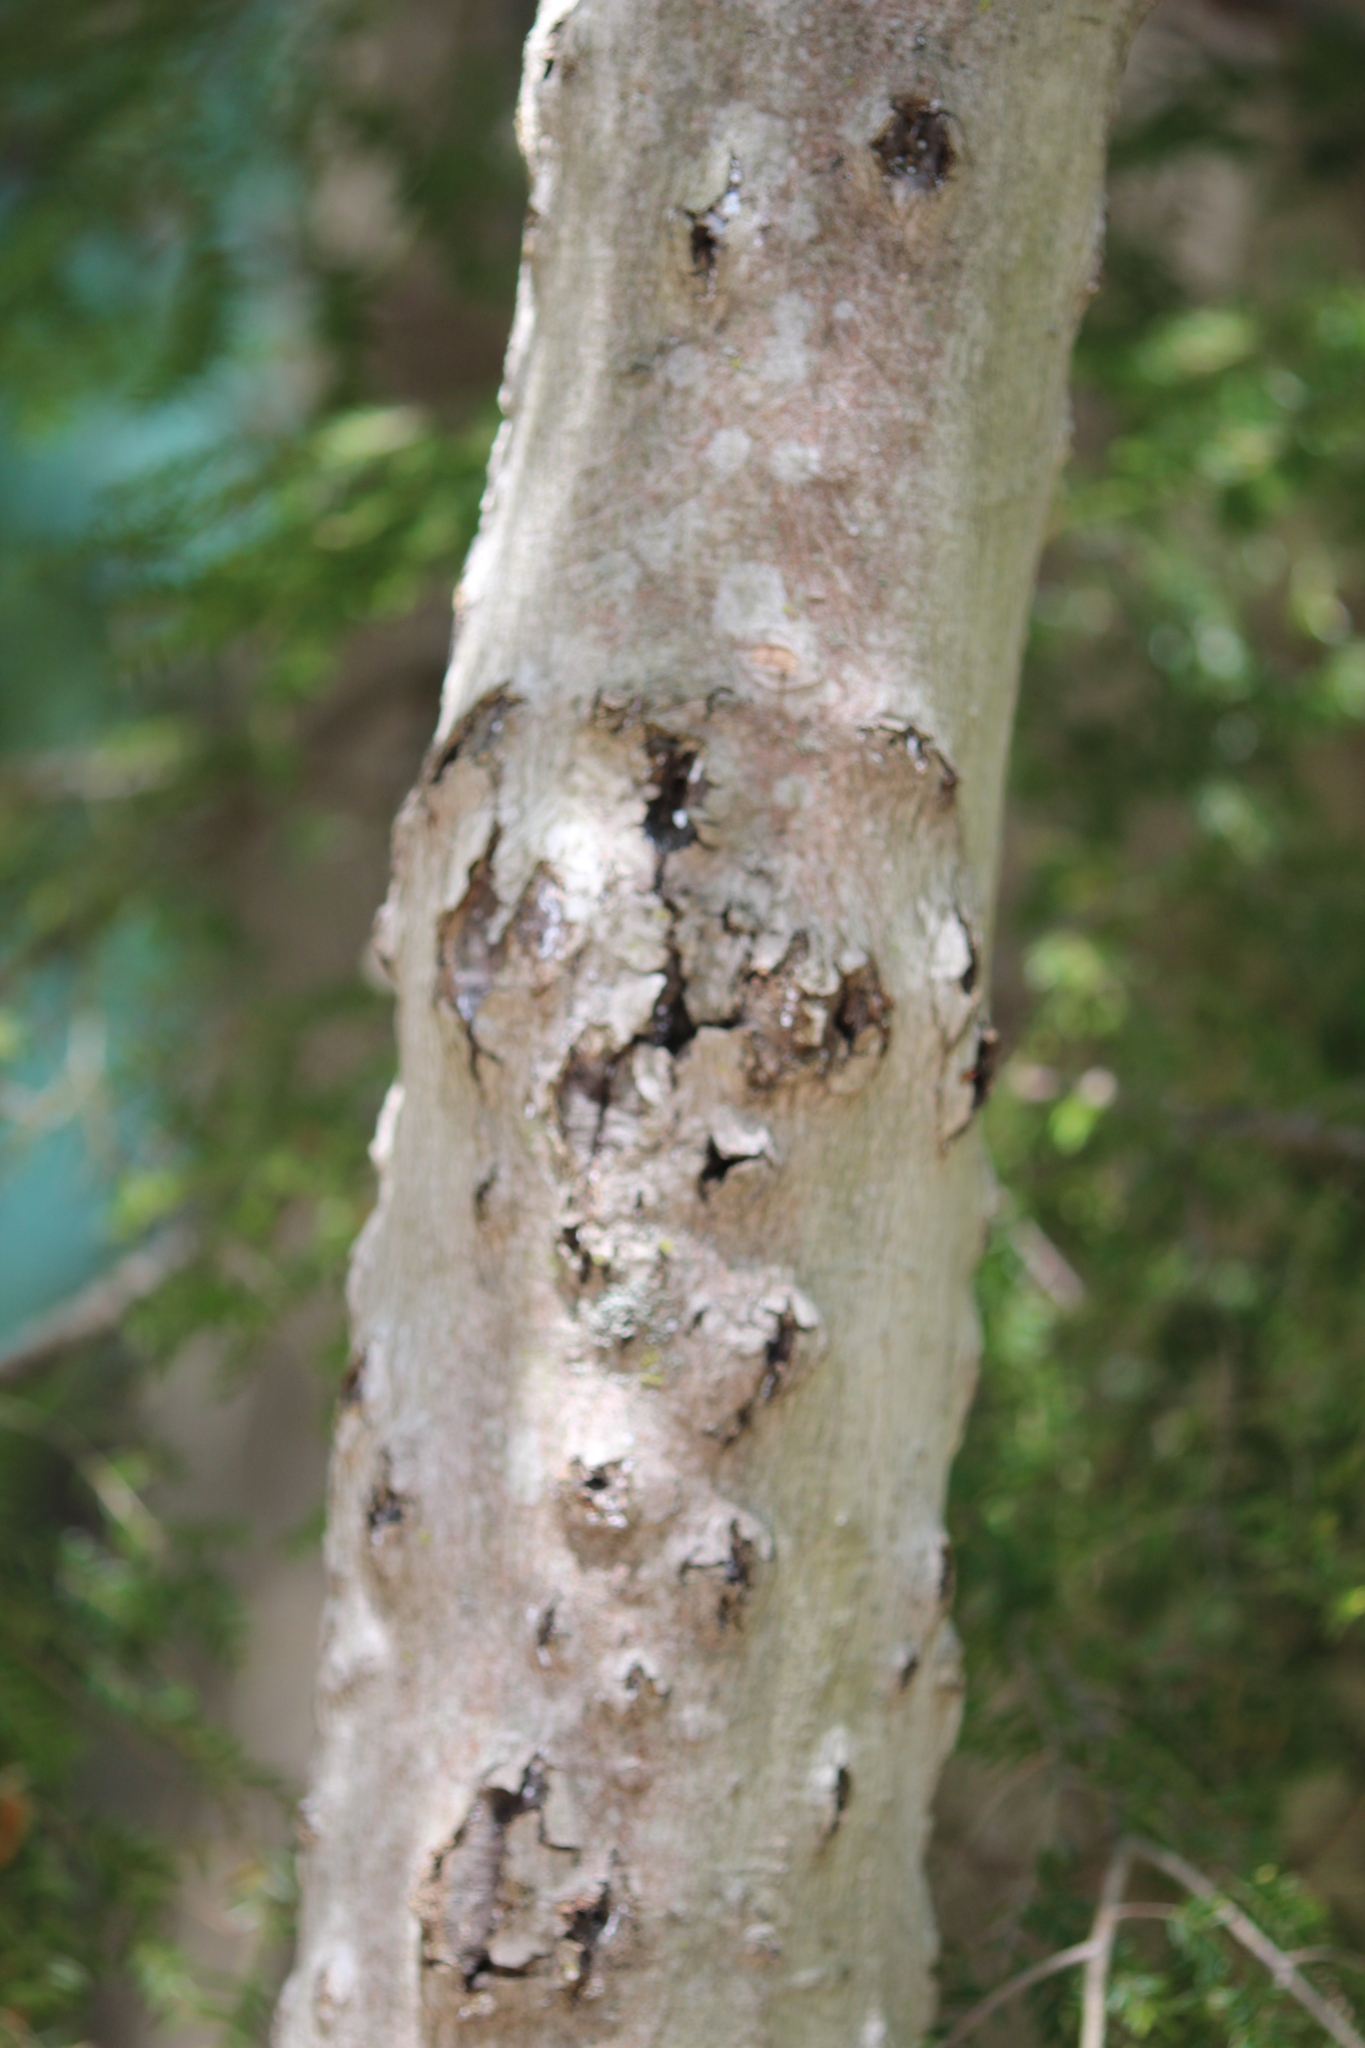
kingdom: Fungi
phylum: Ascomycota
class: Sordariomycetes
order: Hypocreales
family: Nectriaceae
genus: Neonectria
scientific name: Neonectria faginata
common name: Beech bark canker
